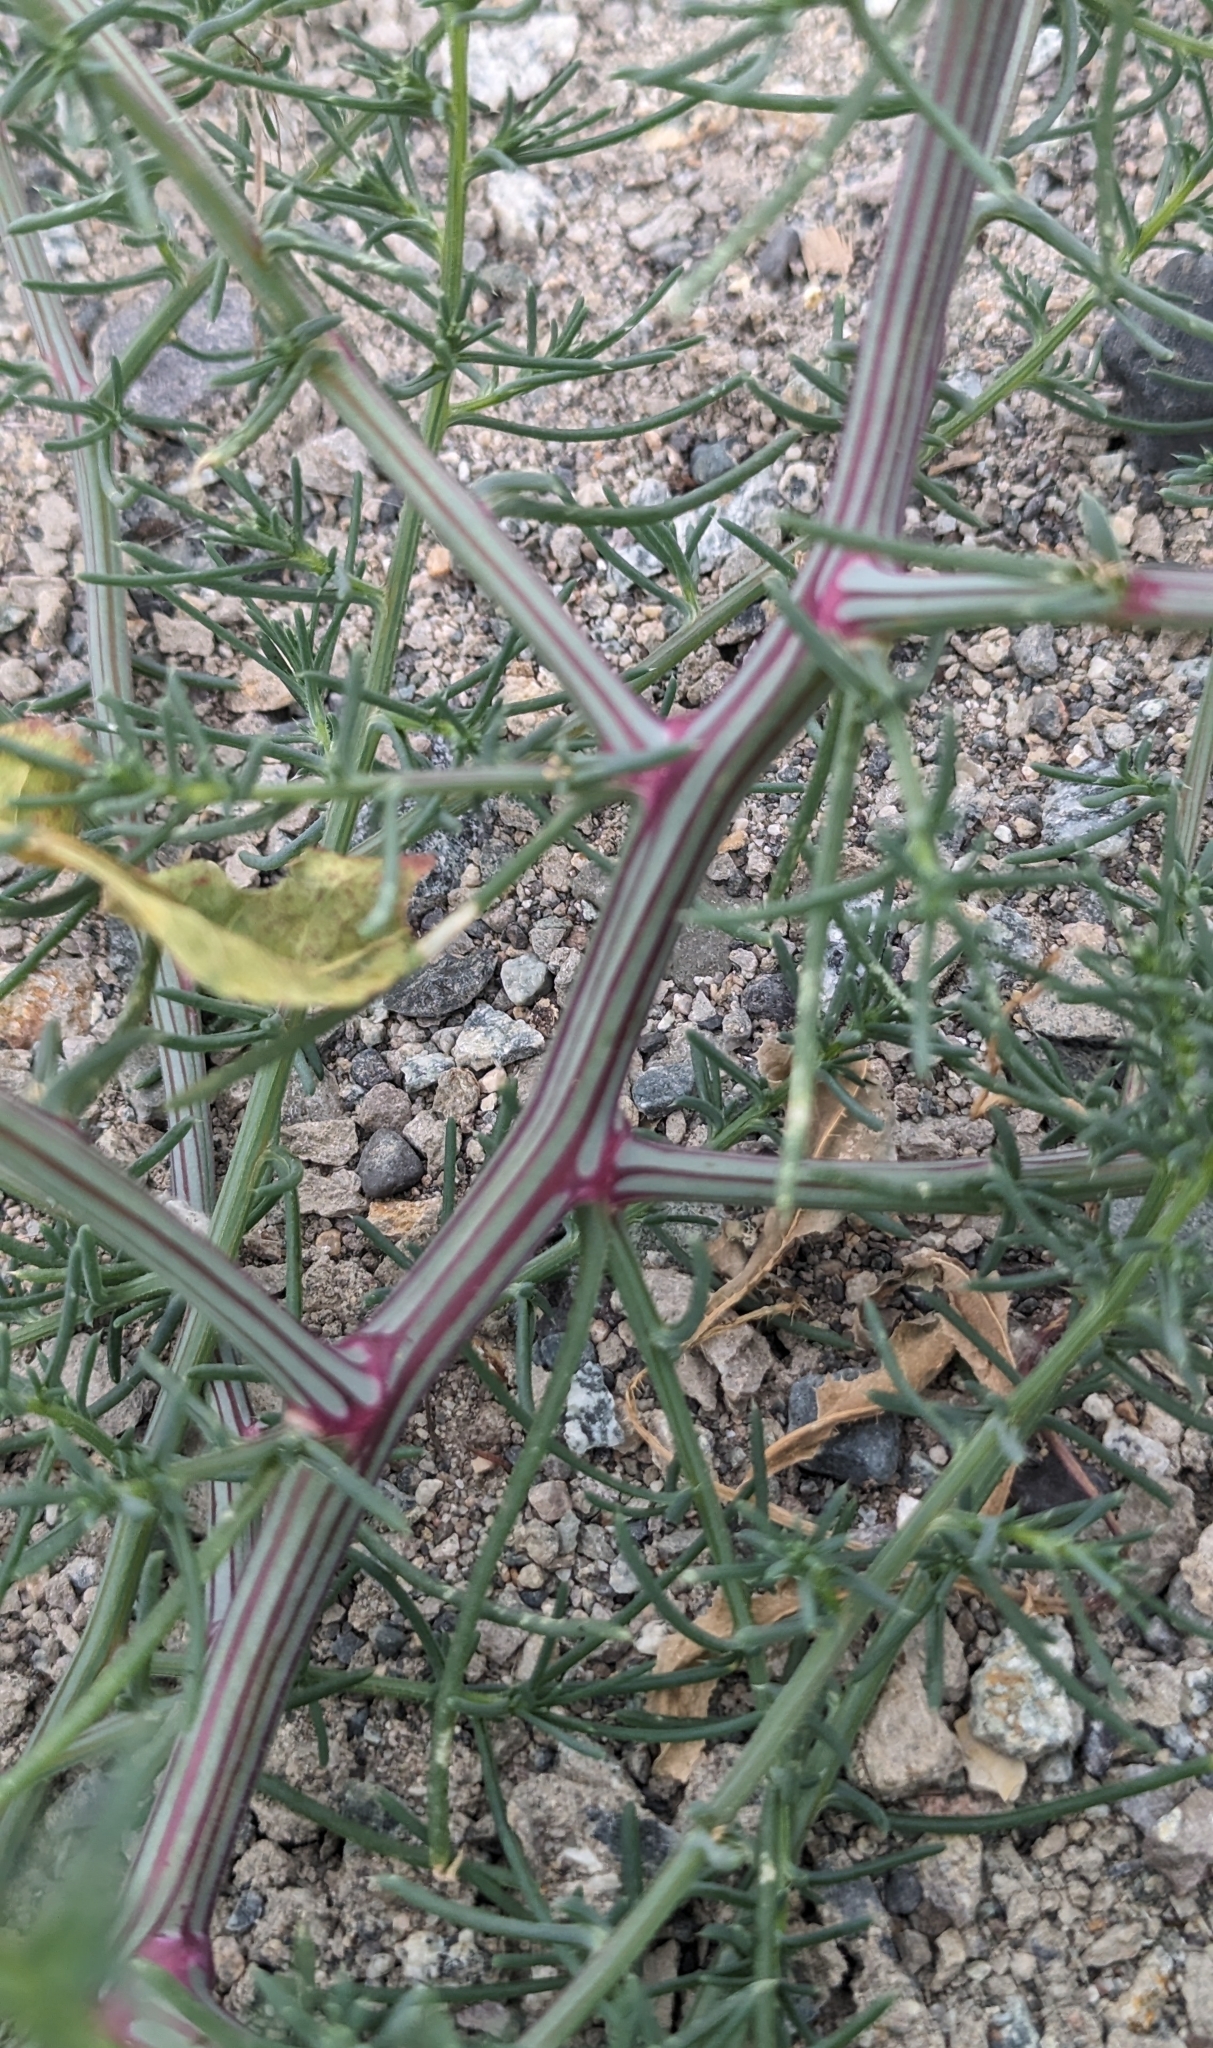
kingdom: Plantae
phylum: Tracheophyta
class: Magnoliopsida
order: Caryophyllales
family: Amaranthaceae
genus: Salsola
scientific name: Salsola tragus
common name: Prickly russian thistle
